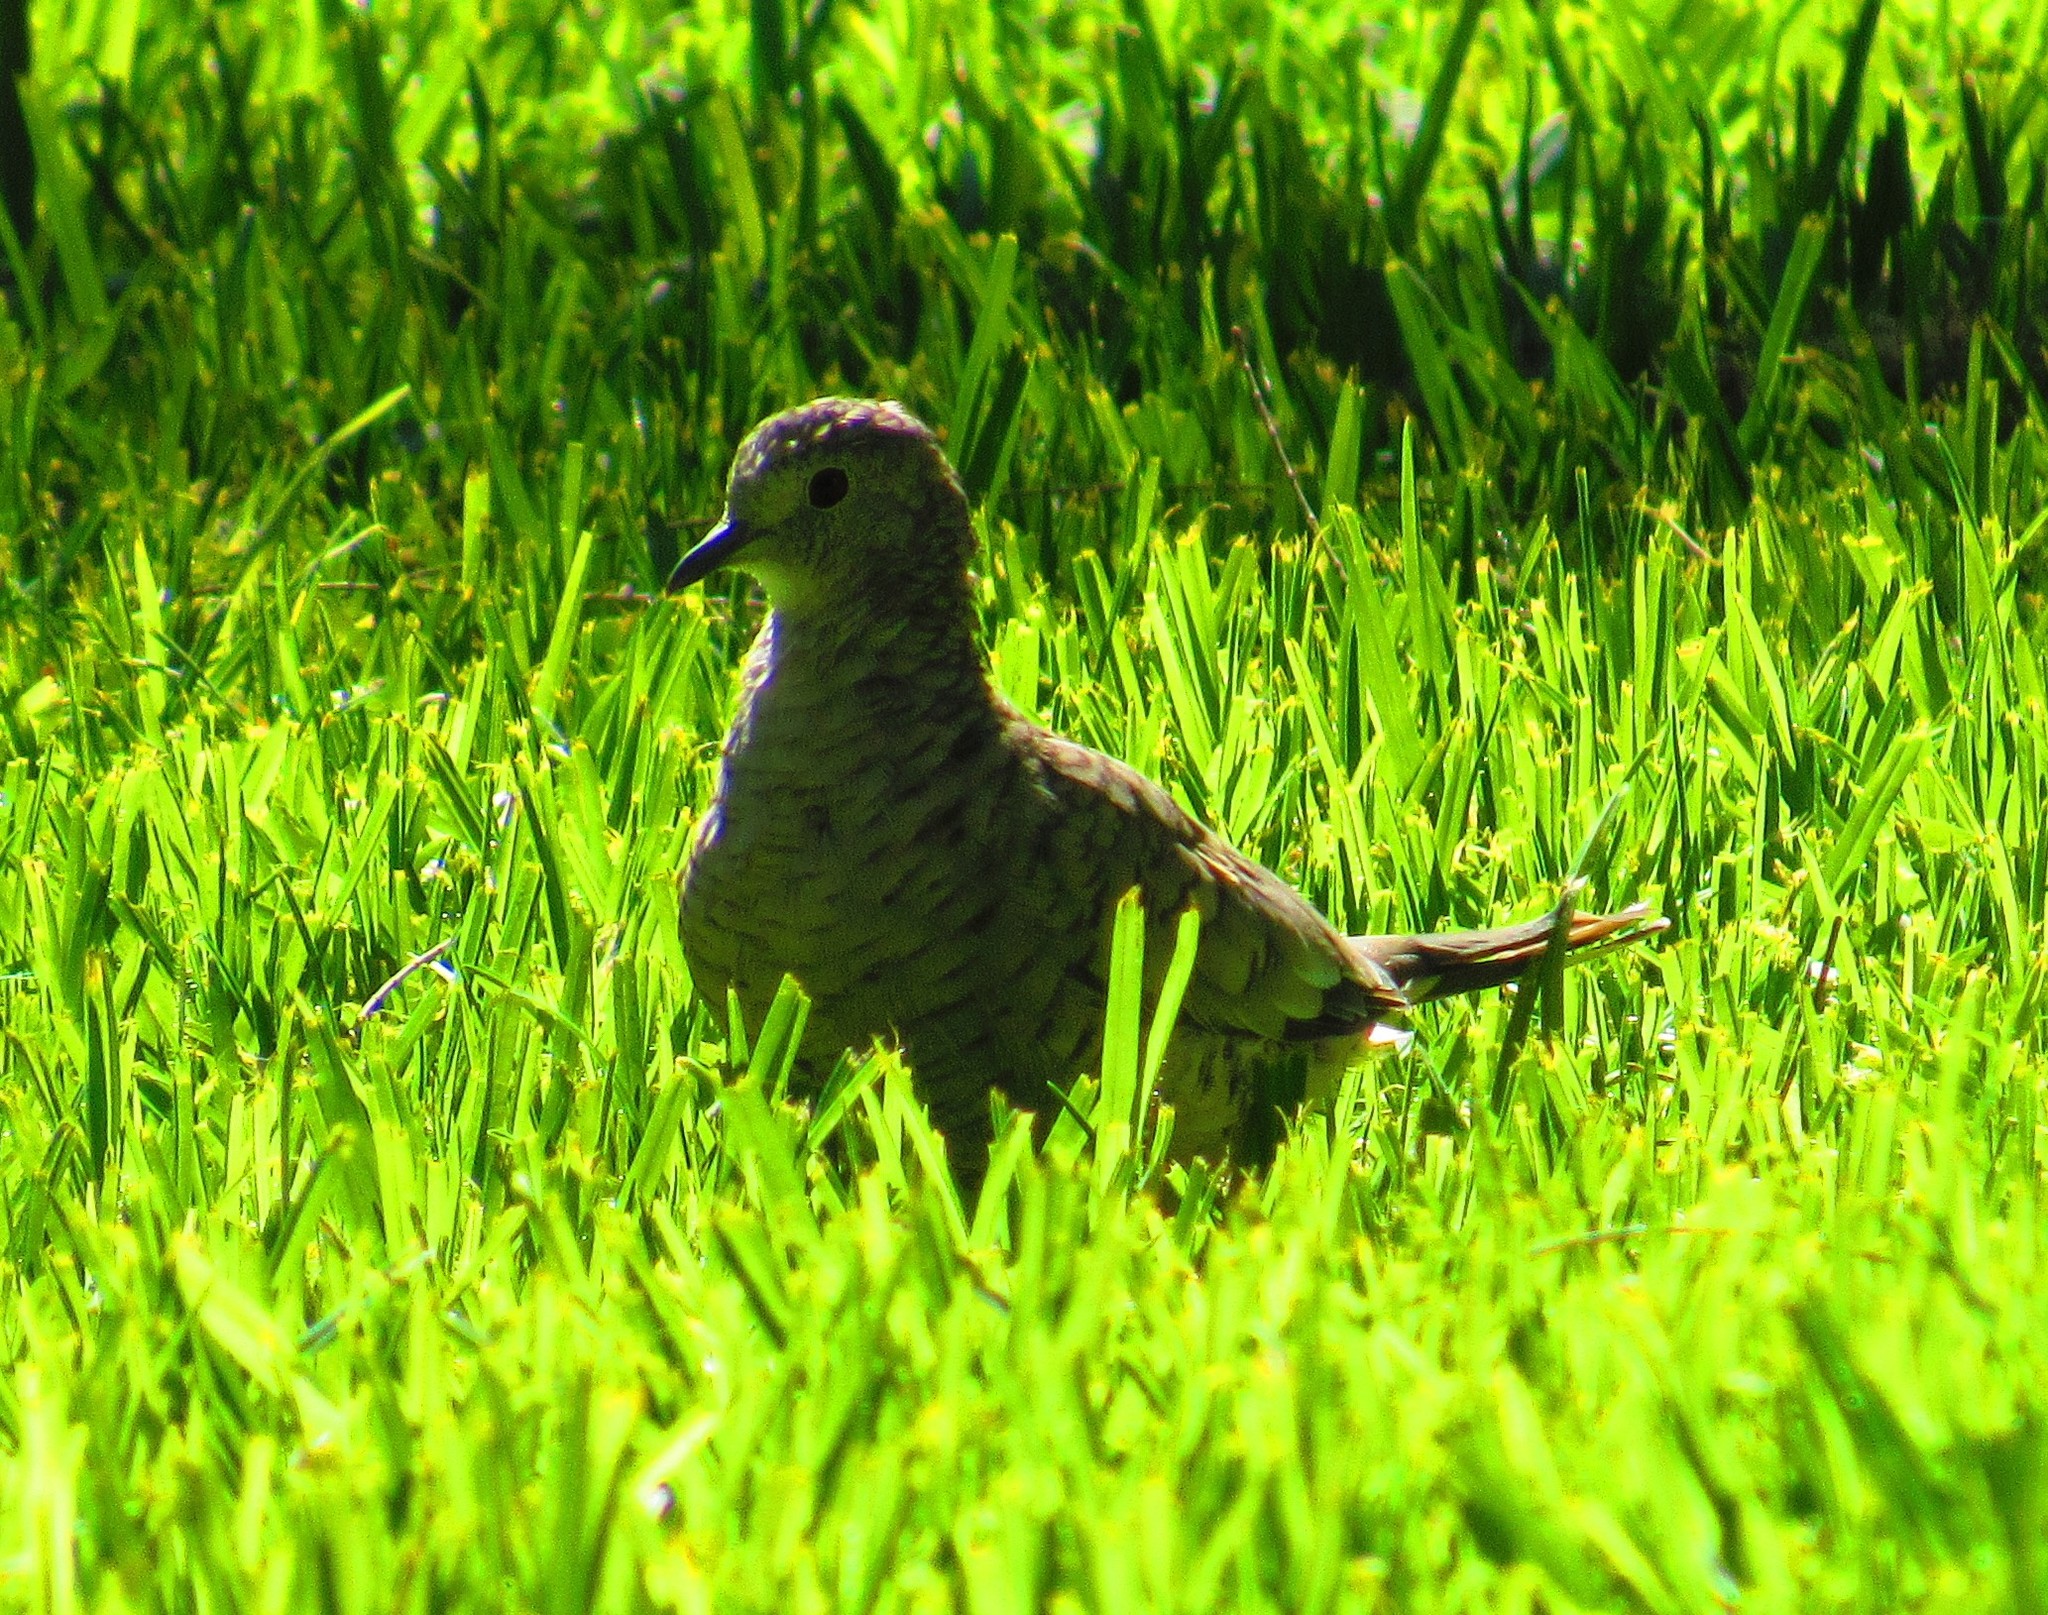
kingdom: Animalia
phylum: Chordata
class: Aves
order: Columbiformes
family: Columbidae
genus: Columbina
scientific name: Columbina inca
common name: Inca dove
